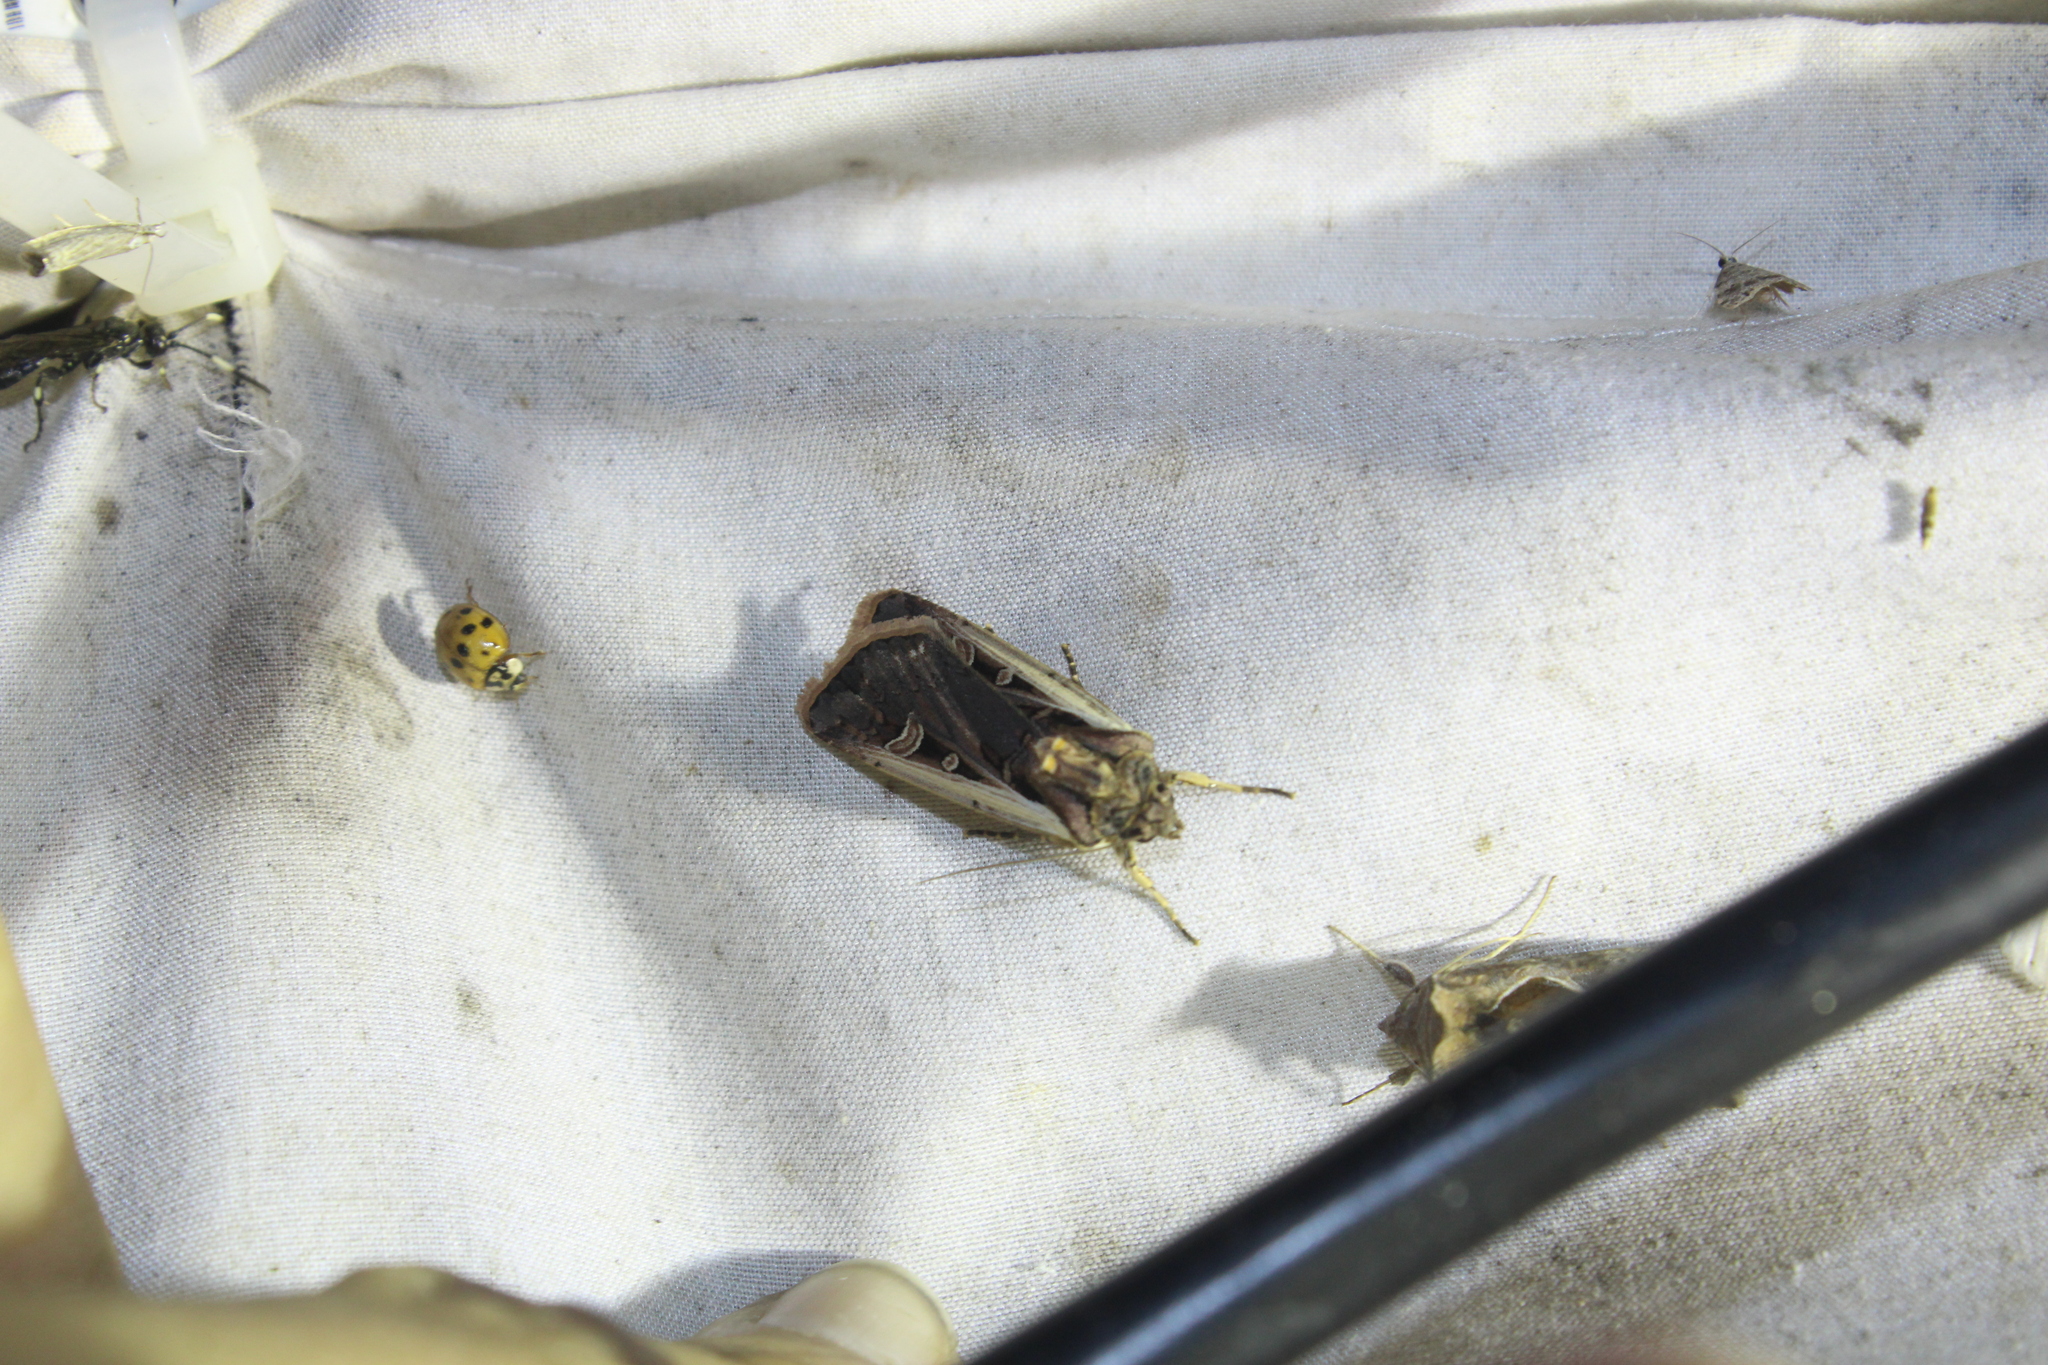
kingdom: Animalia
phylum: Arthropoda
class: Insecta
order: Lepidoptera
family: Noctuidae
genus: Ochropleura
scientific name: Ochropleura implecta
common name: Flame-shouldered dart
